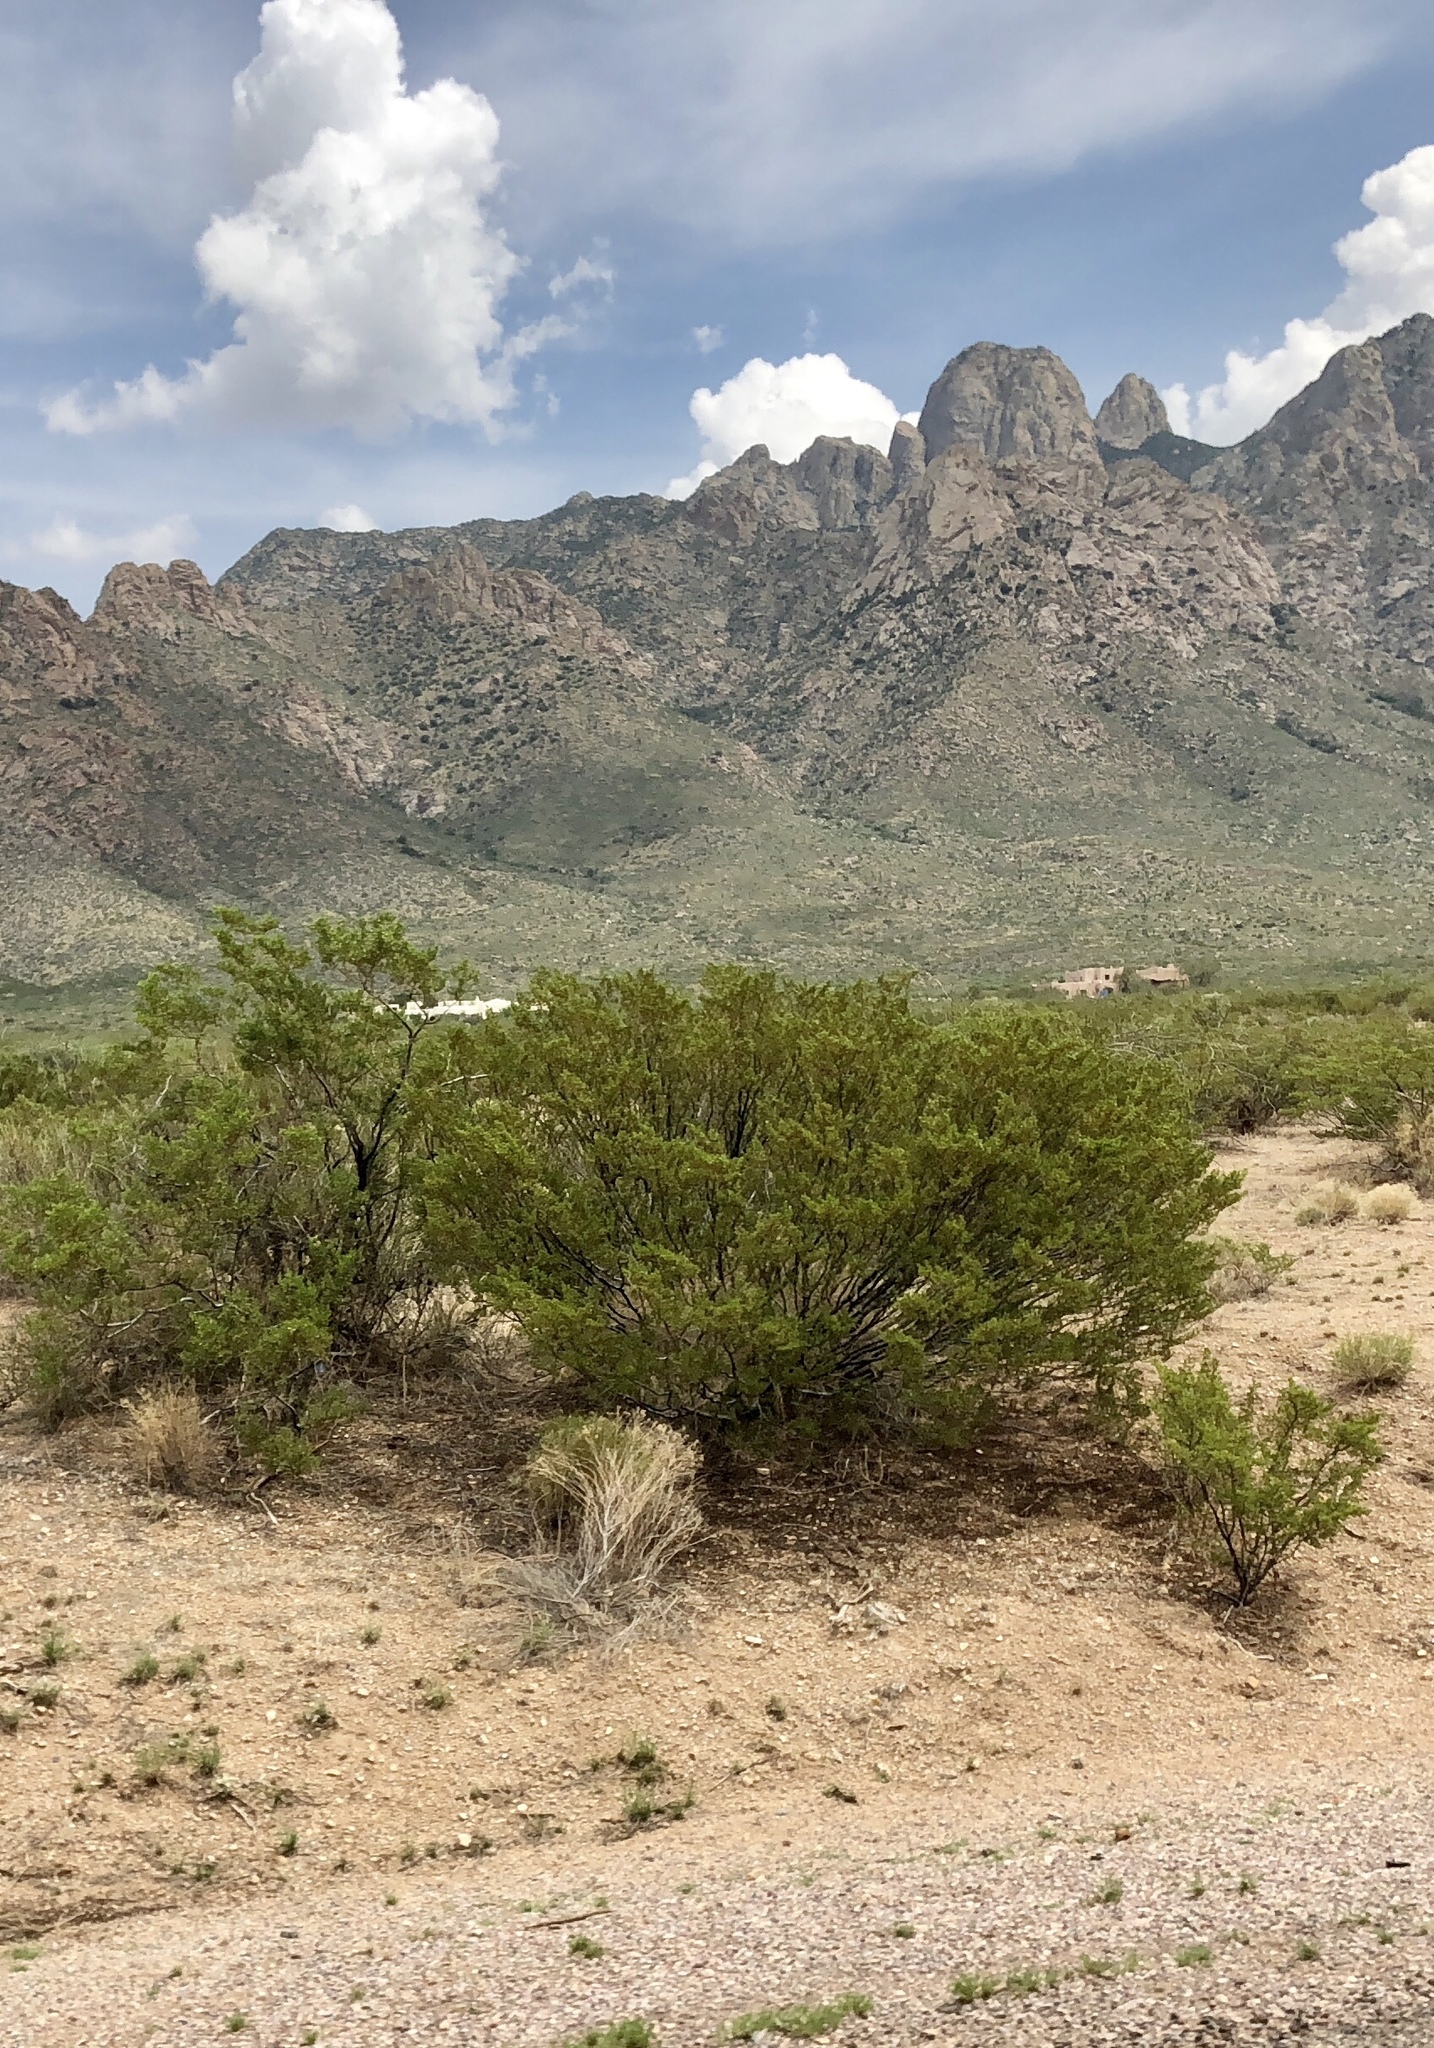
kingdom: Plantae
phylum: Tracheophyta
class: Magnoliopsida
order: Zygophyllales
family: Zygophyllaceae
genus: Larrea
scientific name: Larrea tridentata
